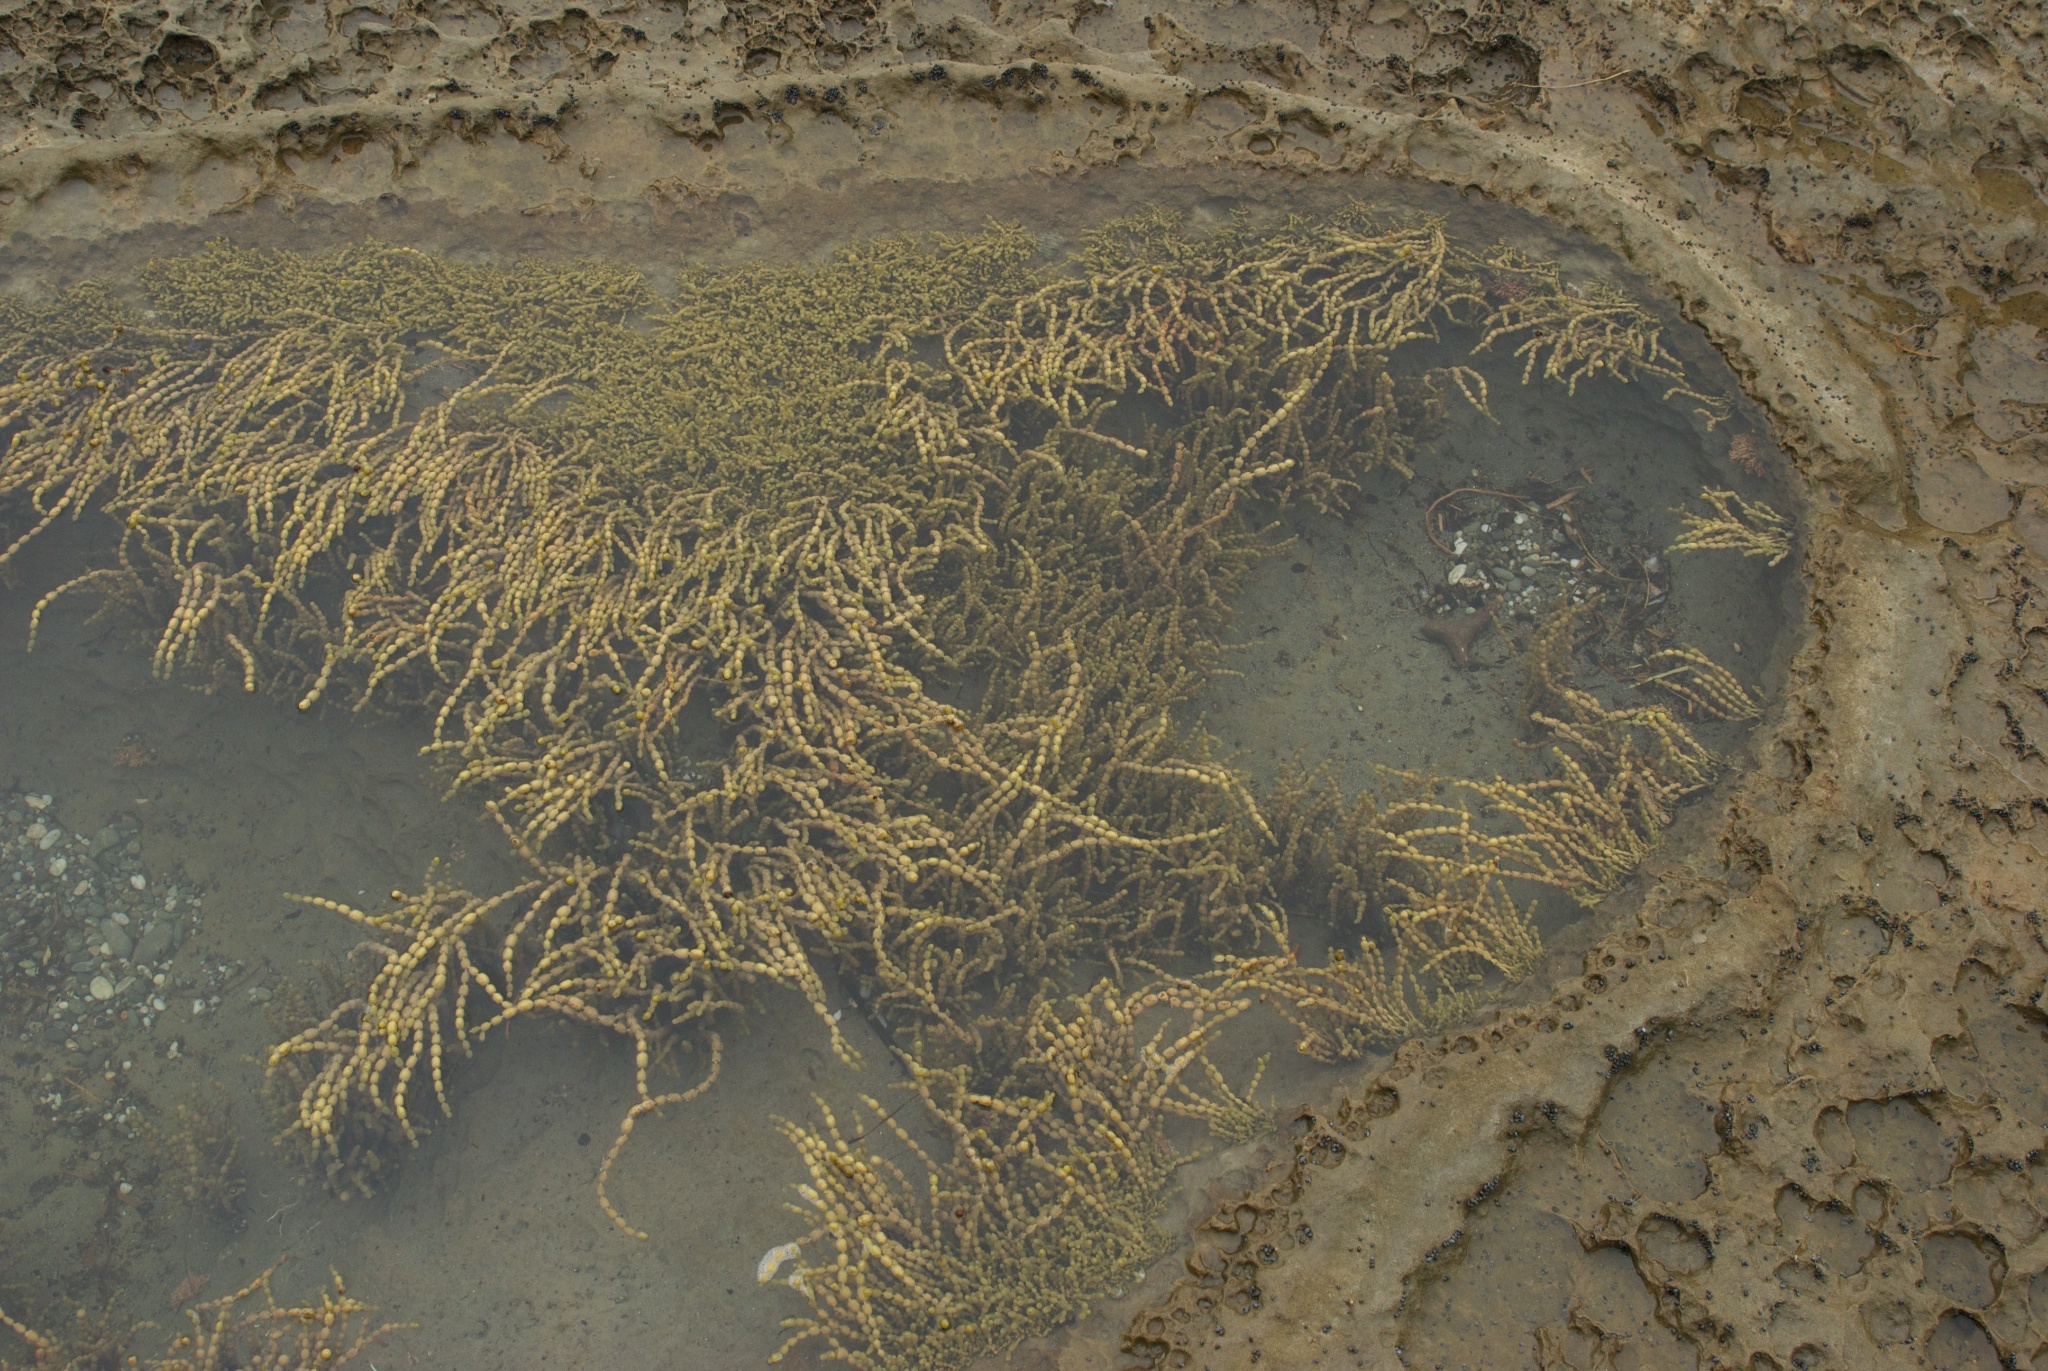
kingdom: Chromista
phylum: Ochrophyta
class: Phaeophyceae
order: Fucales
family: Hormosiraceae
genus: Hormosira
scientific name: Hormosira banksii
